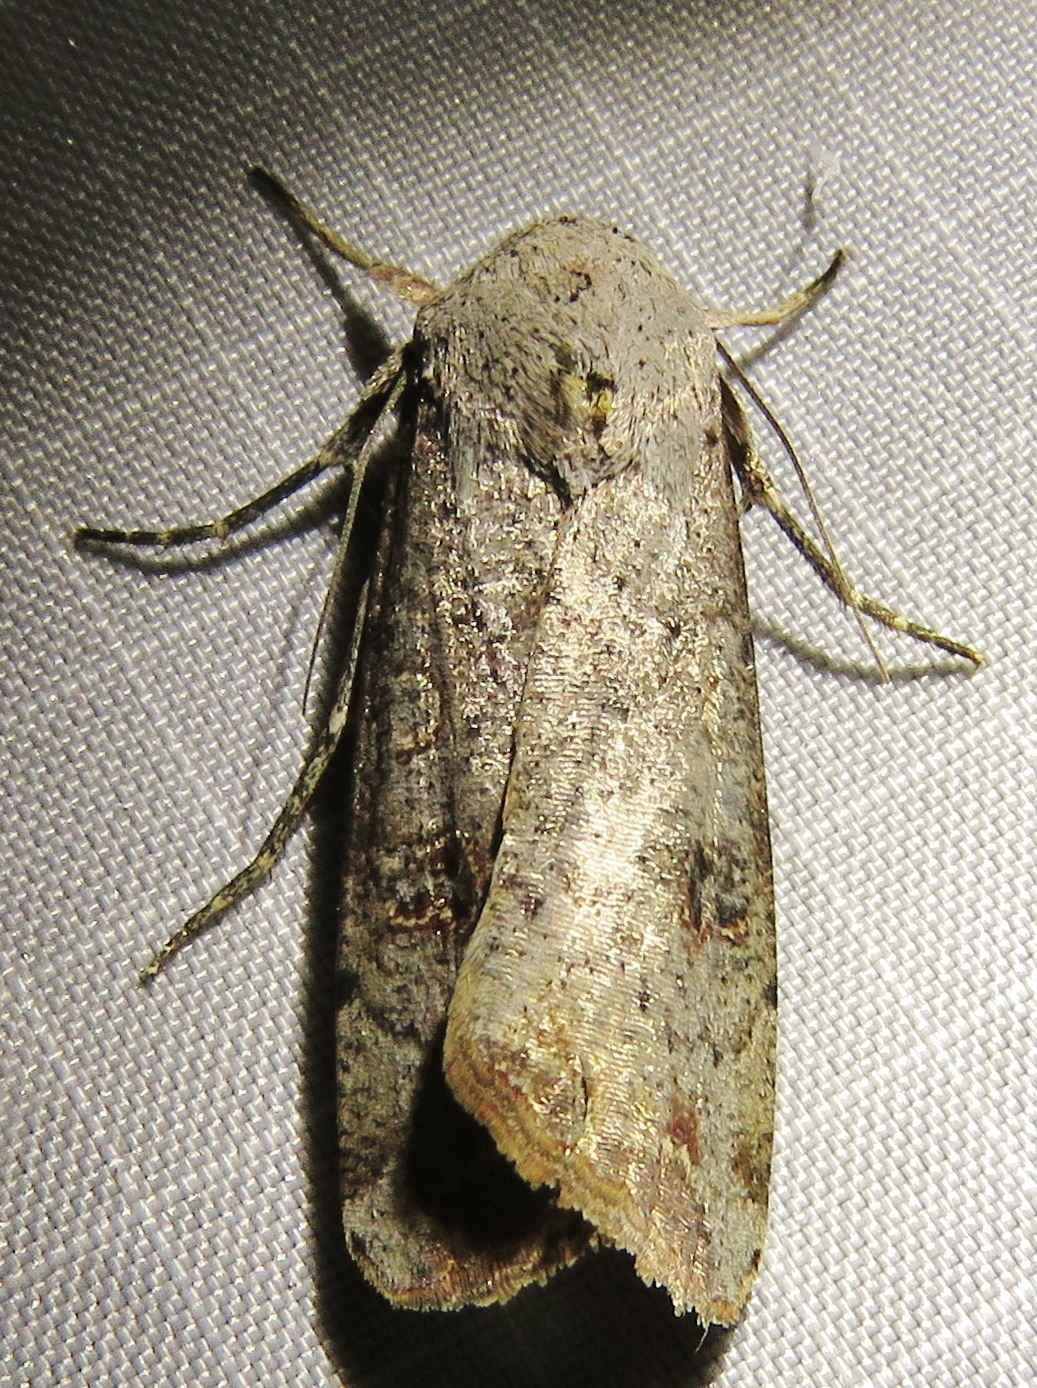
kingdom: Animalia
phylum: Arthropoda
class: Insecta
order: Lepidoptera
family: Noctuidae
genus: Anicla
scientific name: Anicla infecta
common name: Green cutworm
